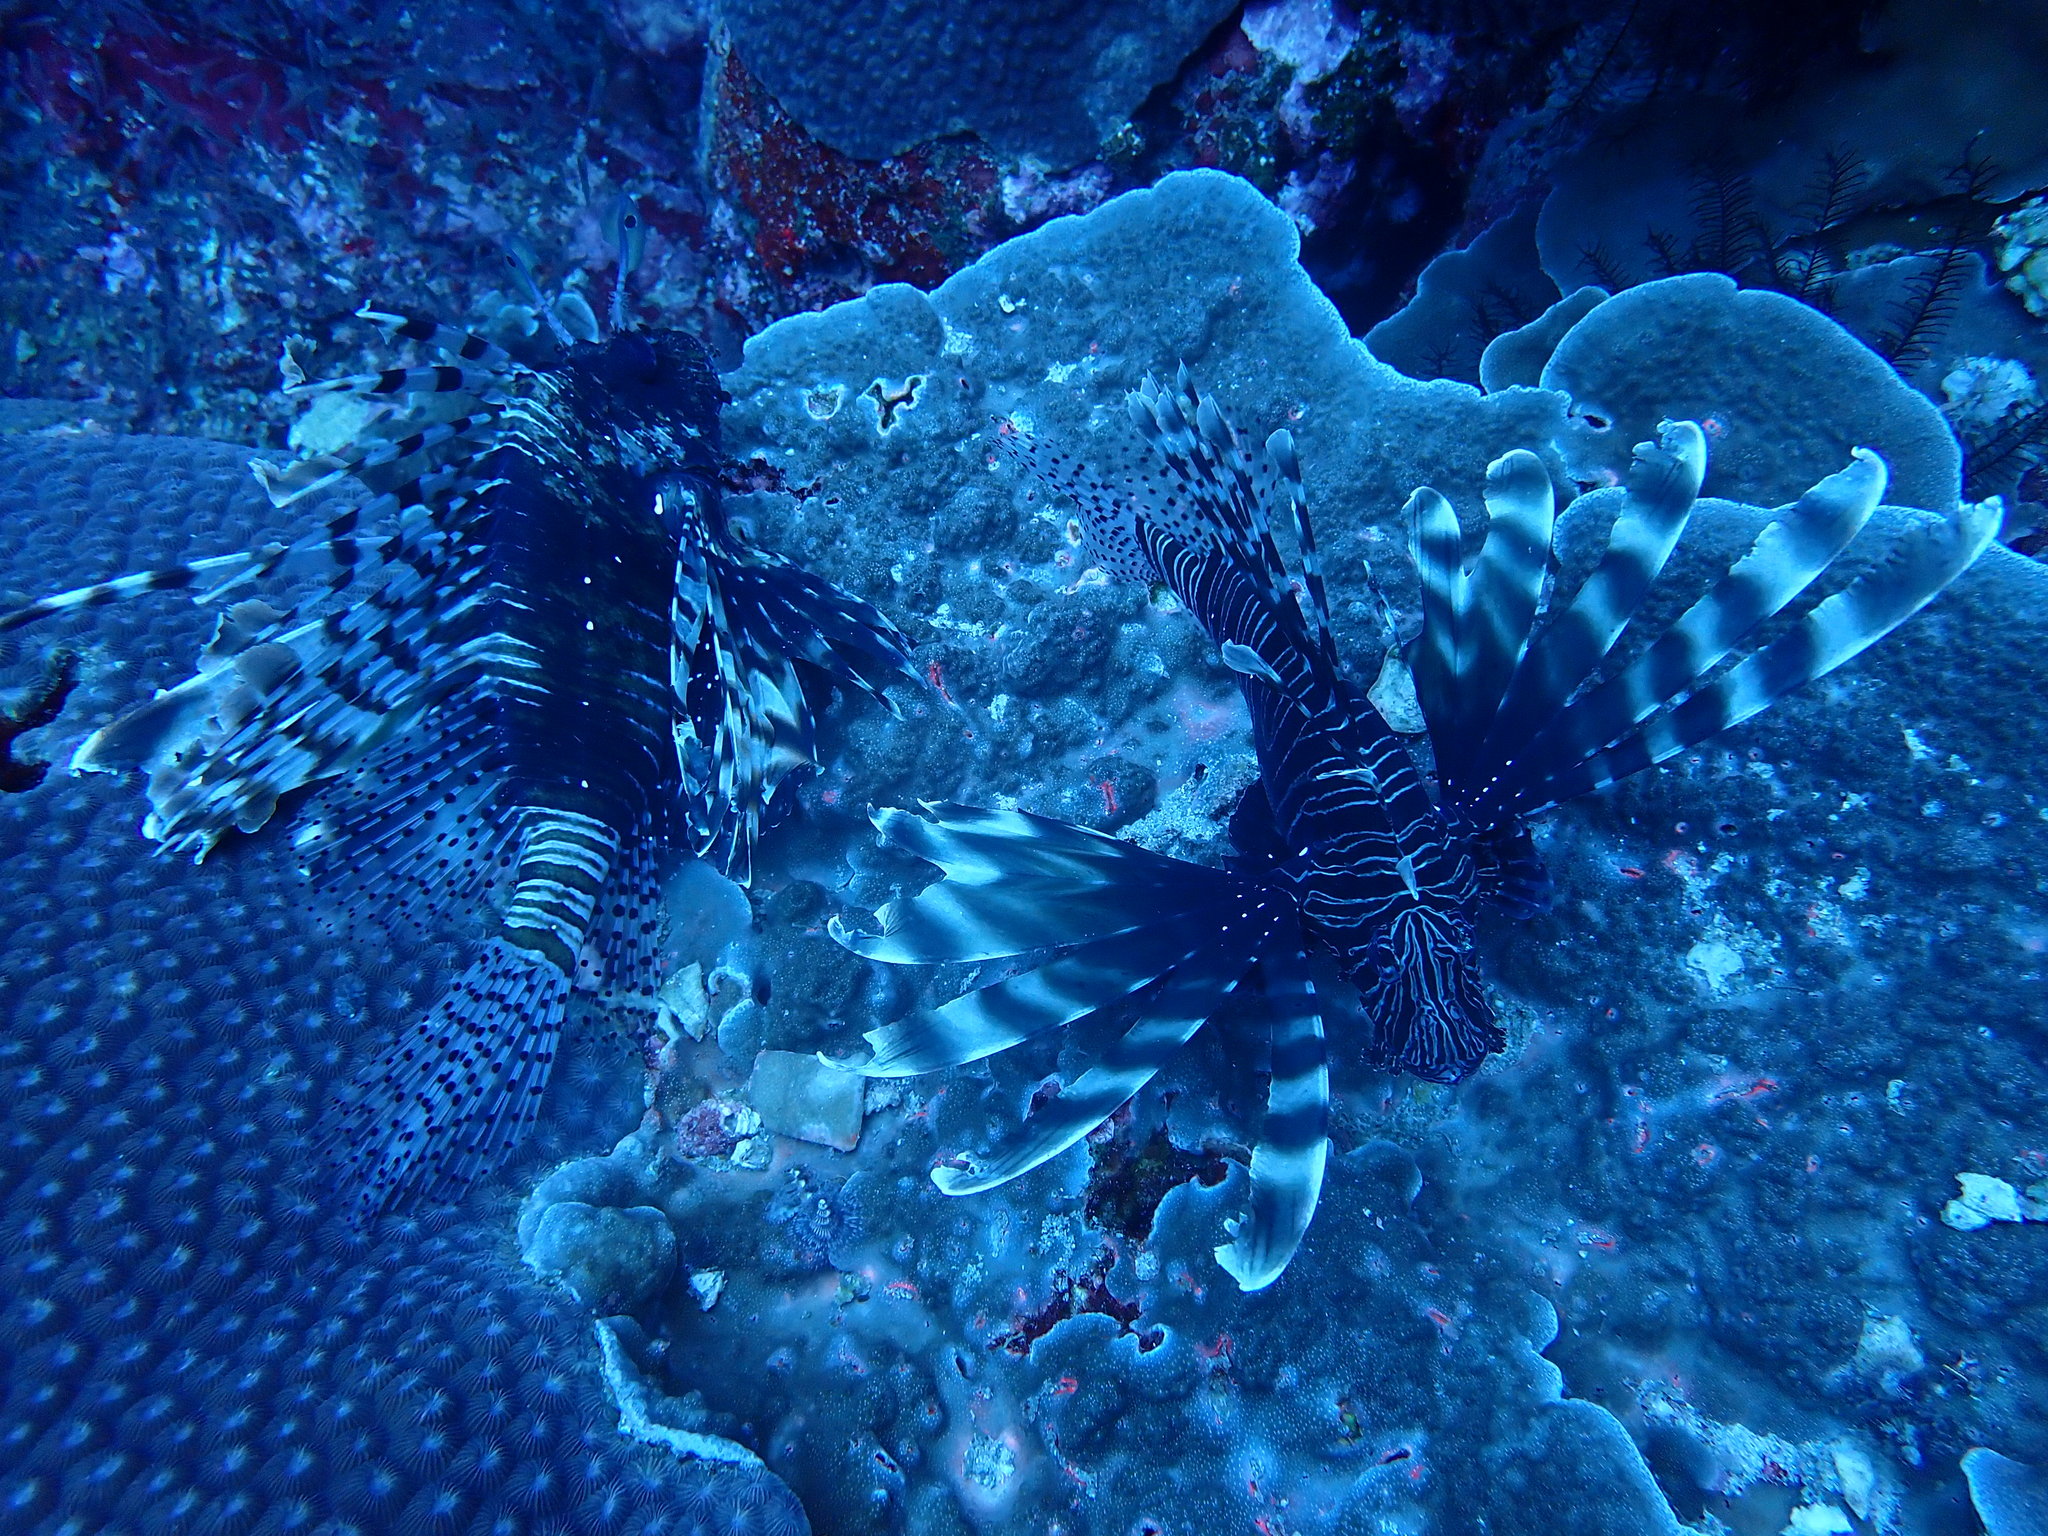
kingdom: Animalia
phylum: Chordata
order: Scorpaeniformes
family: Scorpaenidae
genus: Pterois
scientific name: Pterois miles
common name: Devil firefish
